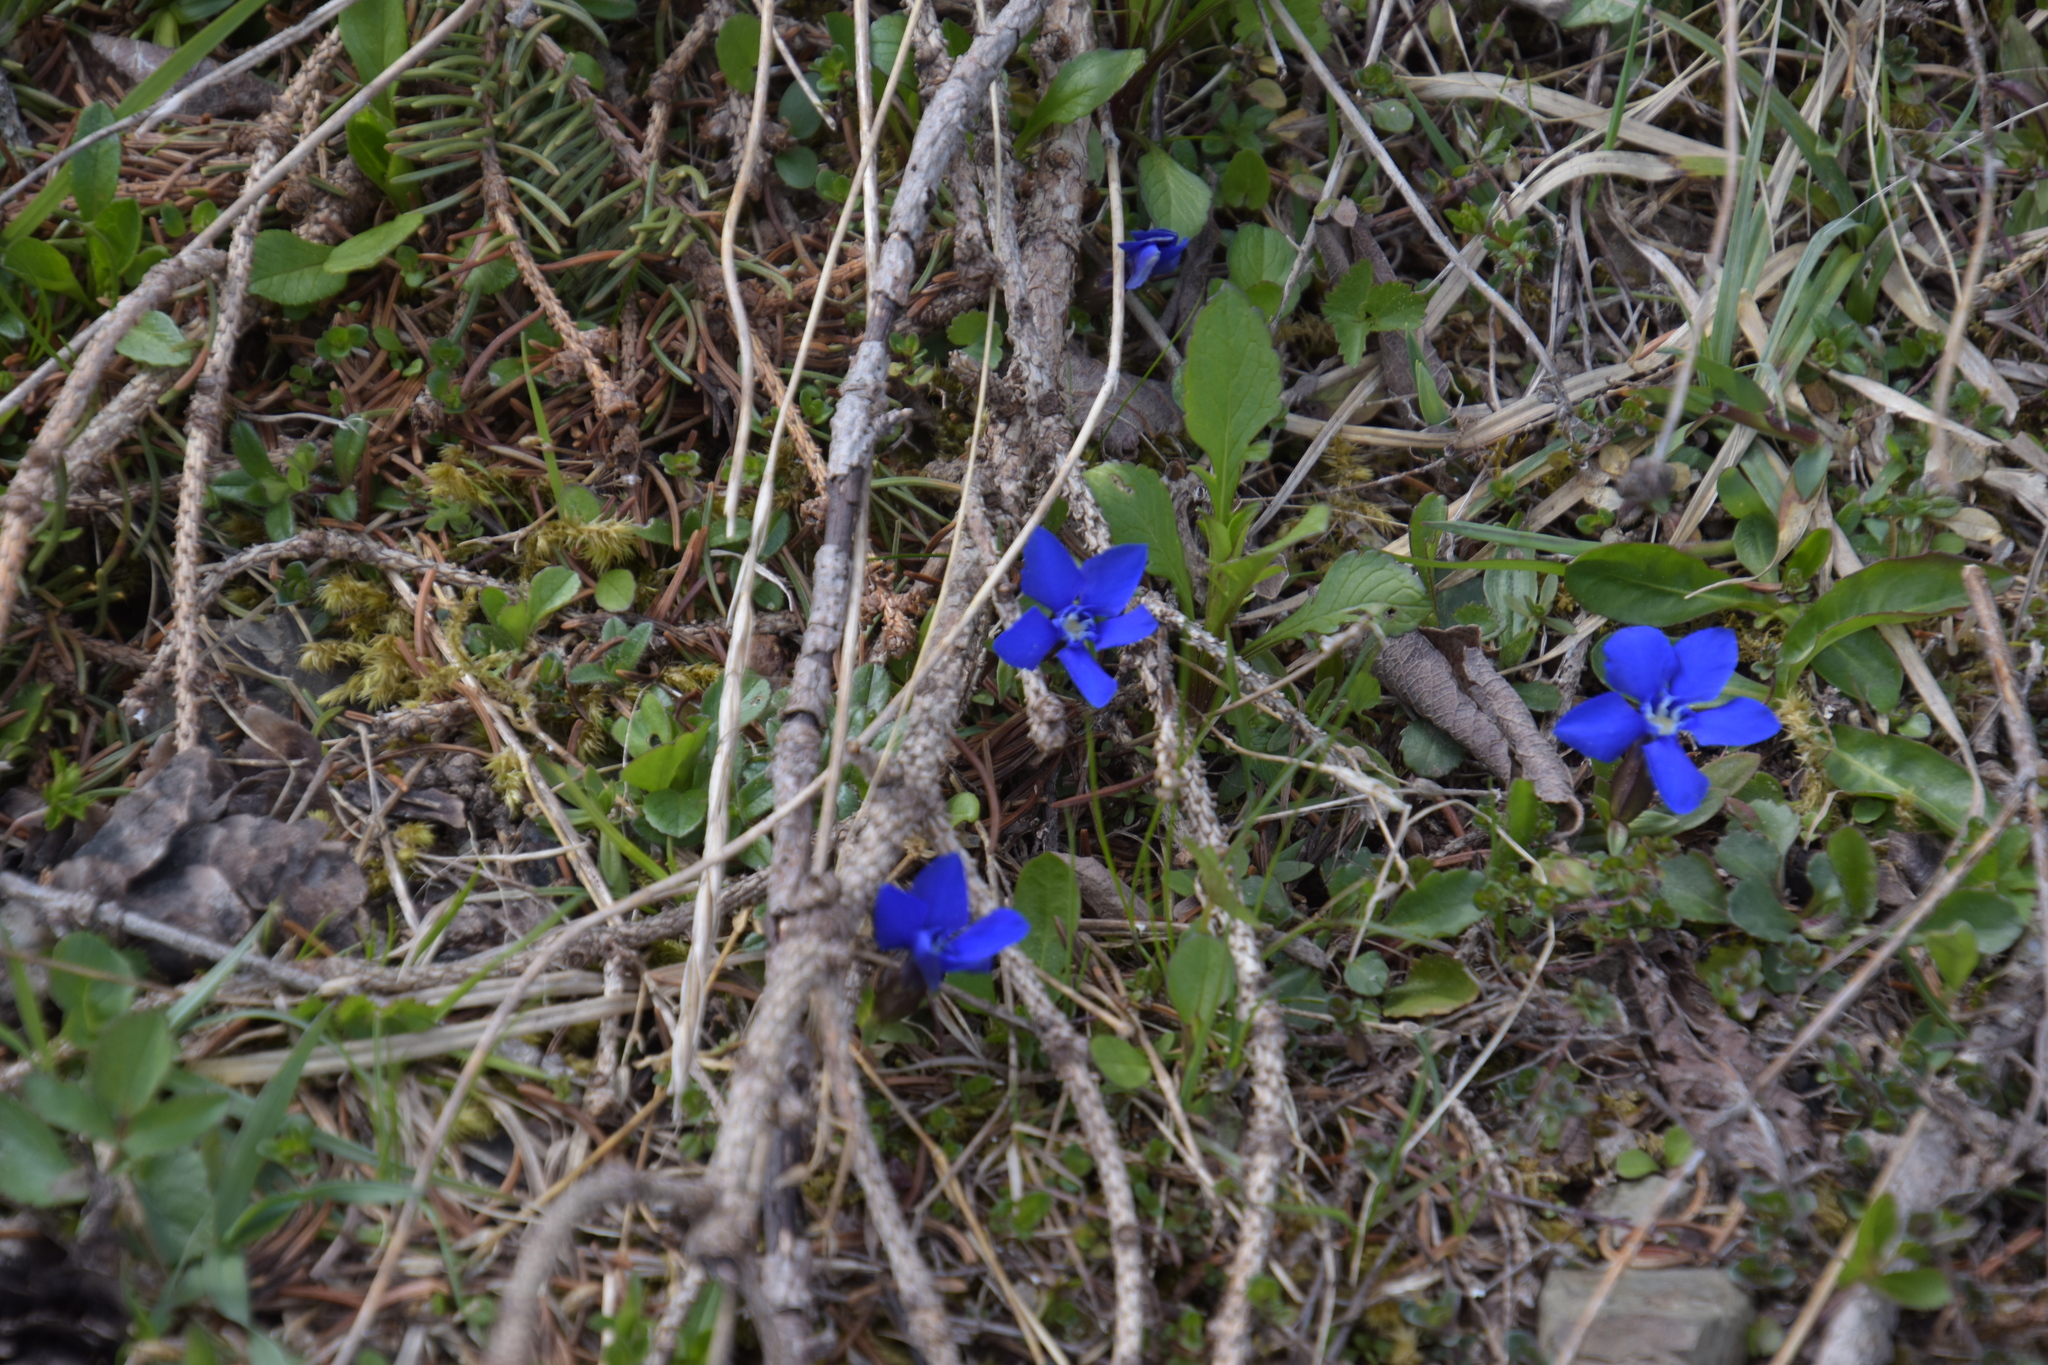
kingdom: Plantae
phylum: Tracheophyta
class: Magnoliopsida
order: Gentianales
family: Gentianaceae
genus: Gentiana
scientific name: Gentiana verna
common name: Spring gentian
